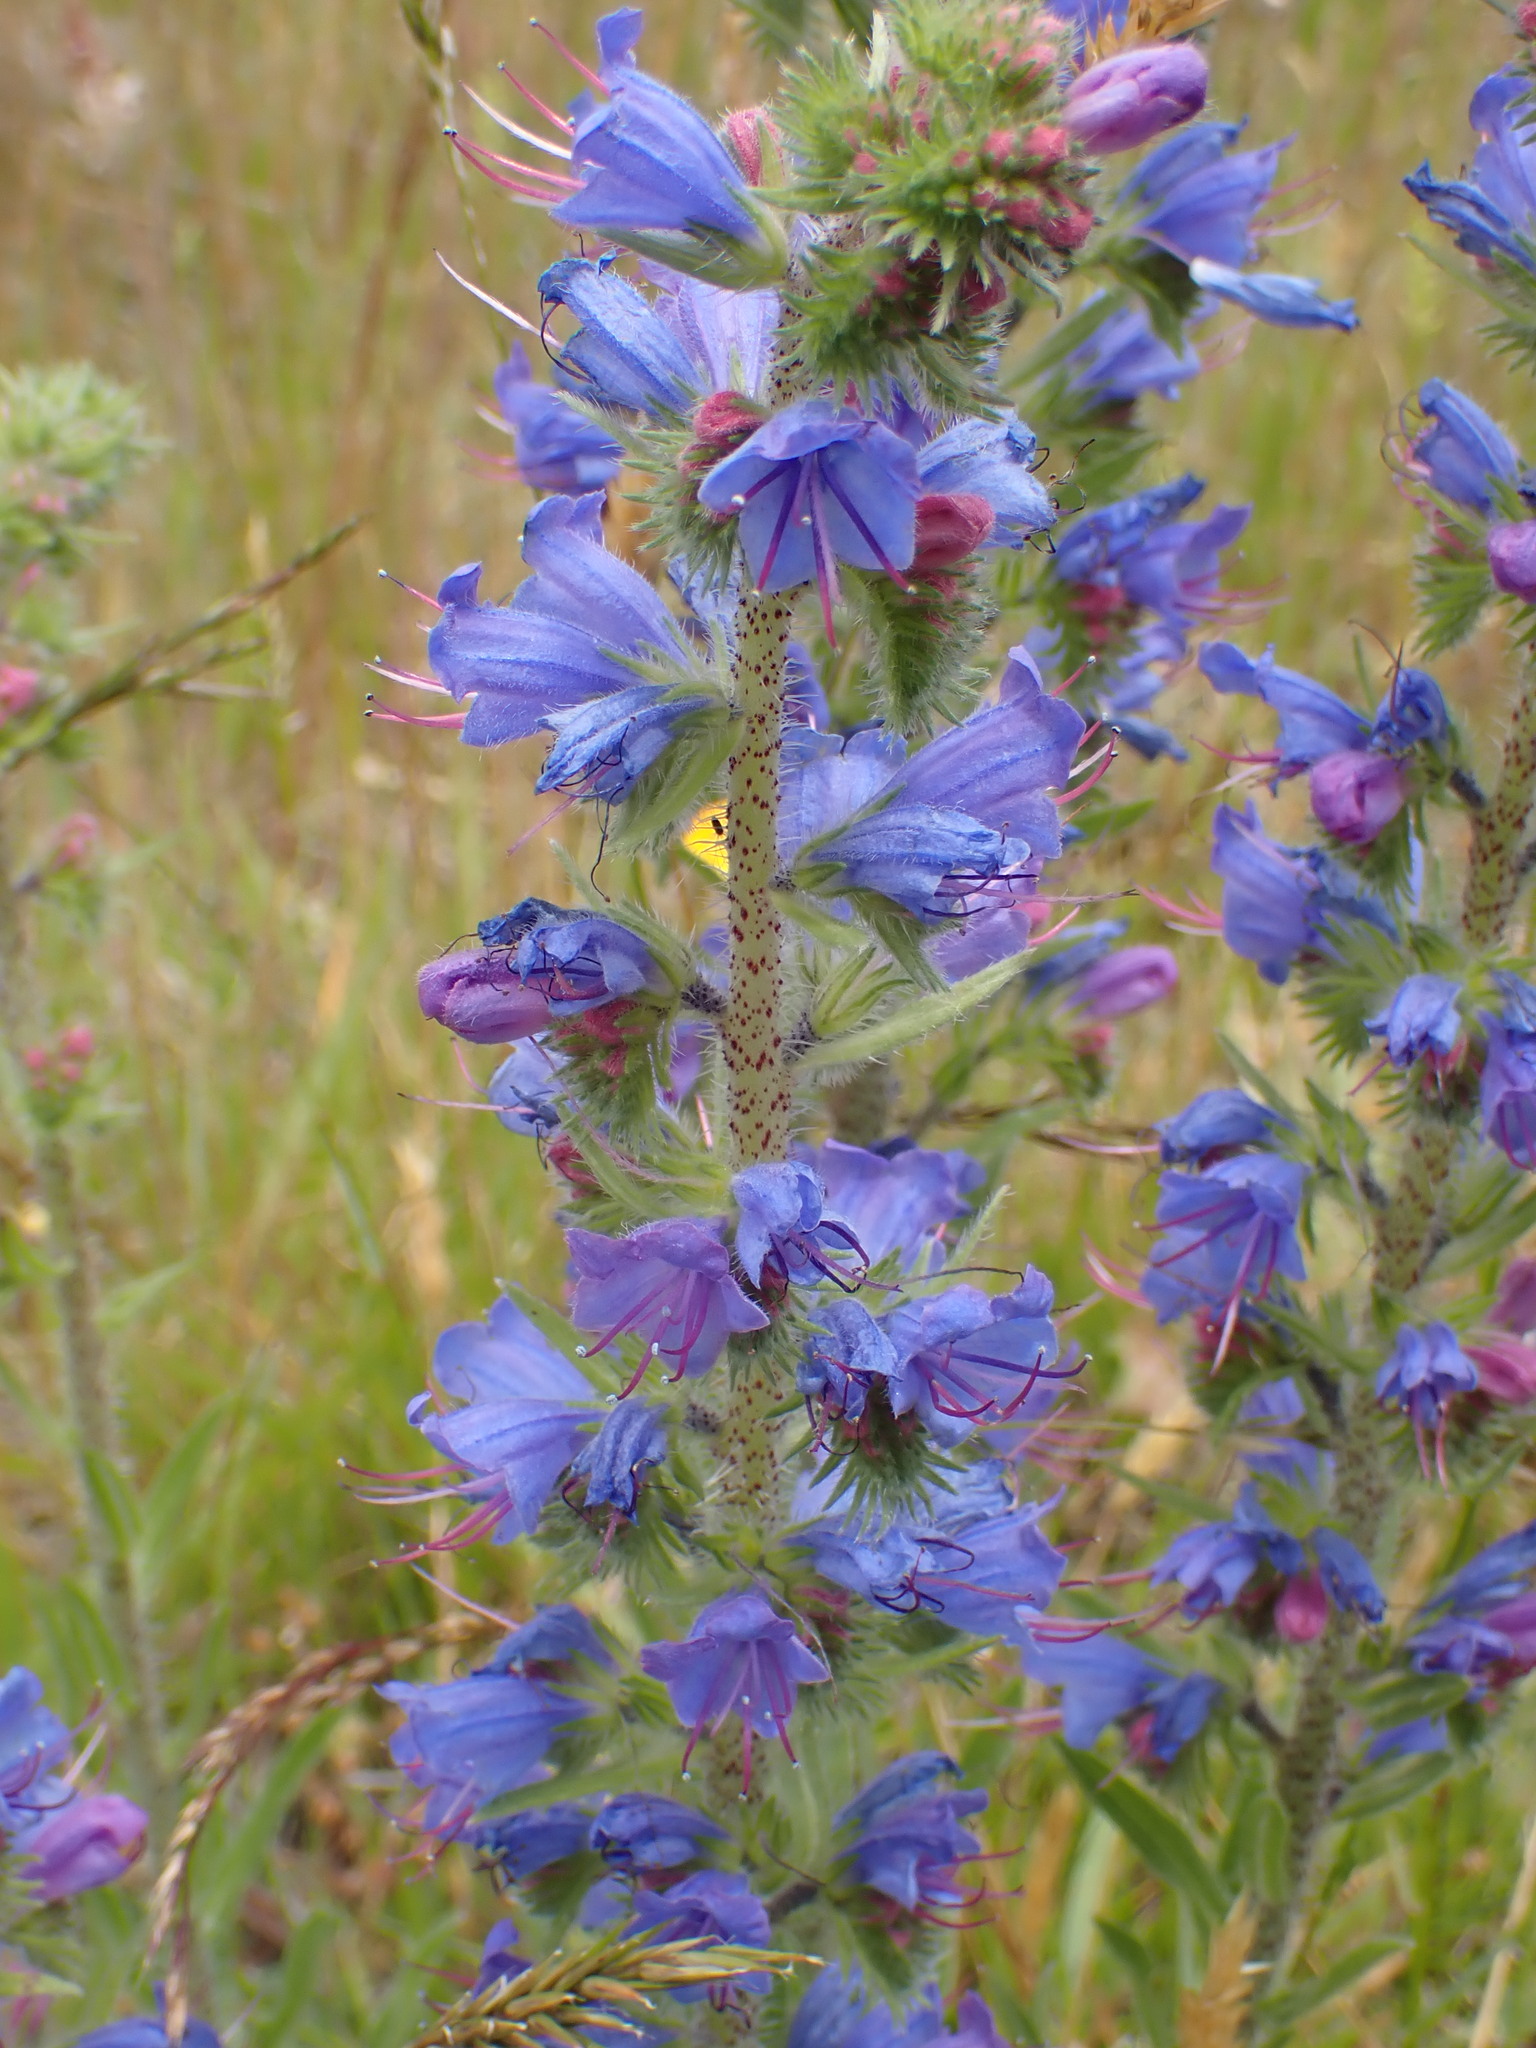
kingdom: Plantae
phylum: Tracheophyta
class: Magnoliopsida
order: Boraginales
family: Boraginaceae
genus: Echium
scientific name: Echium vulgare
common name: Common viper's bugloss
